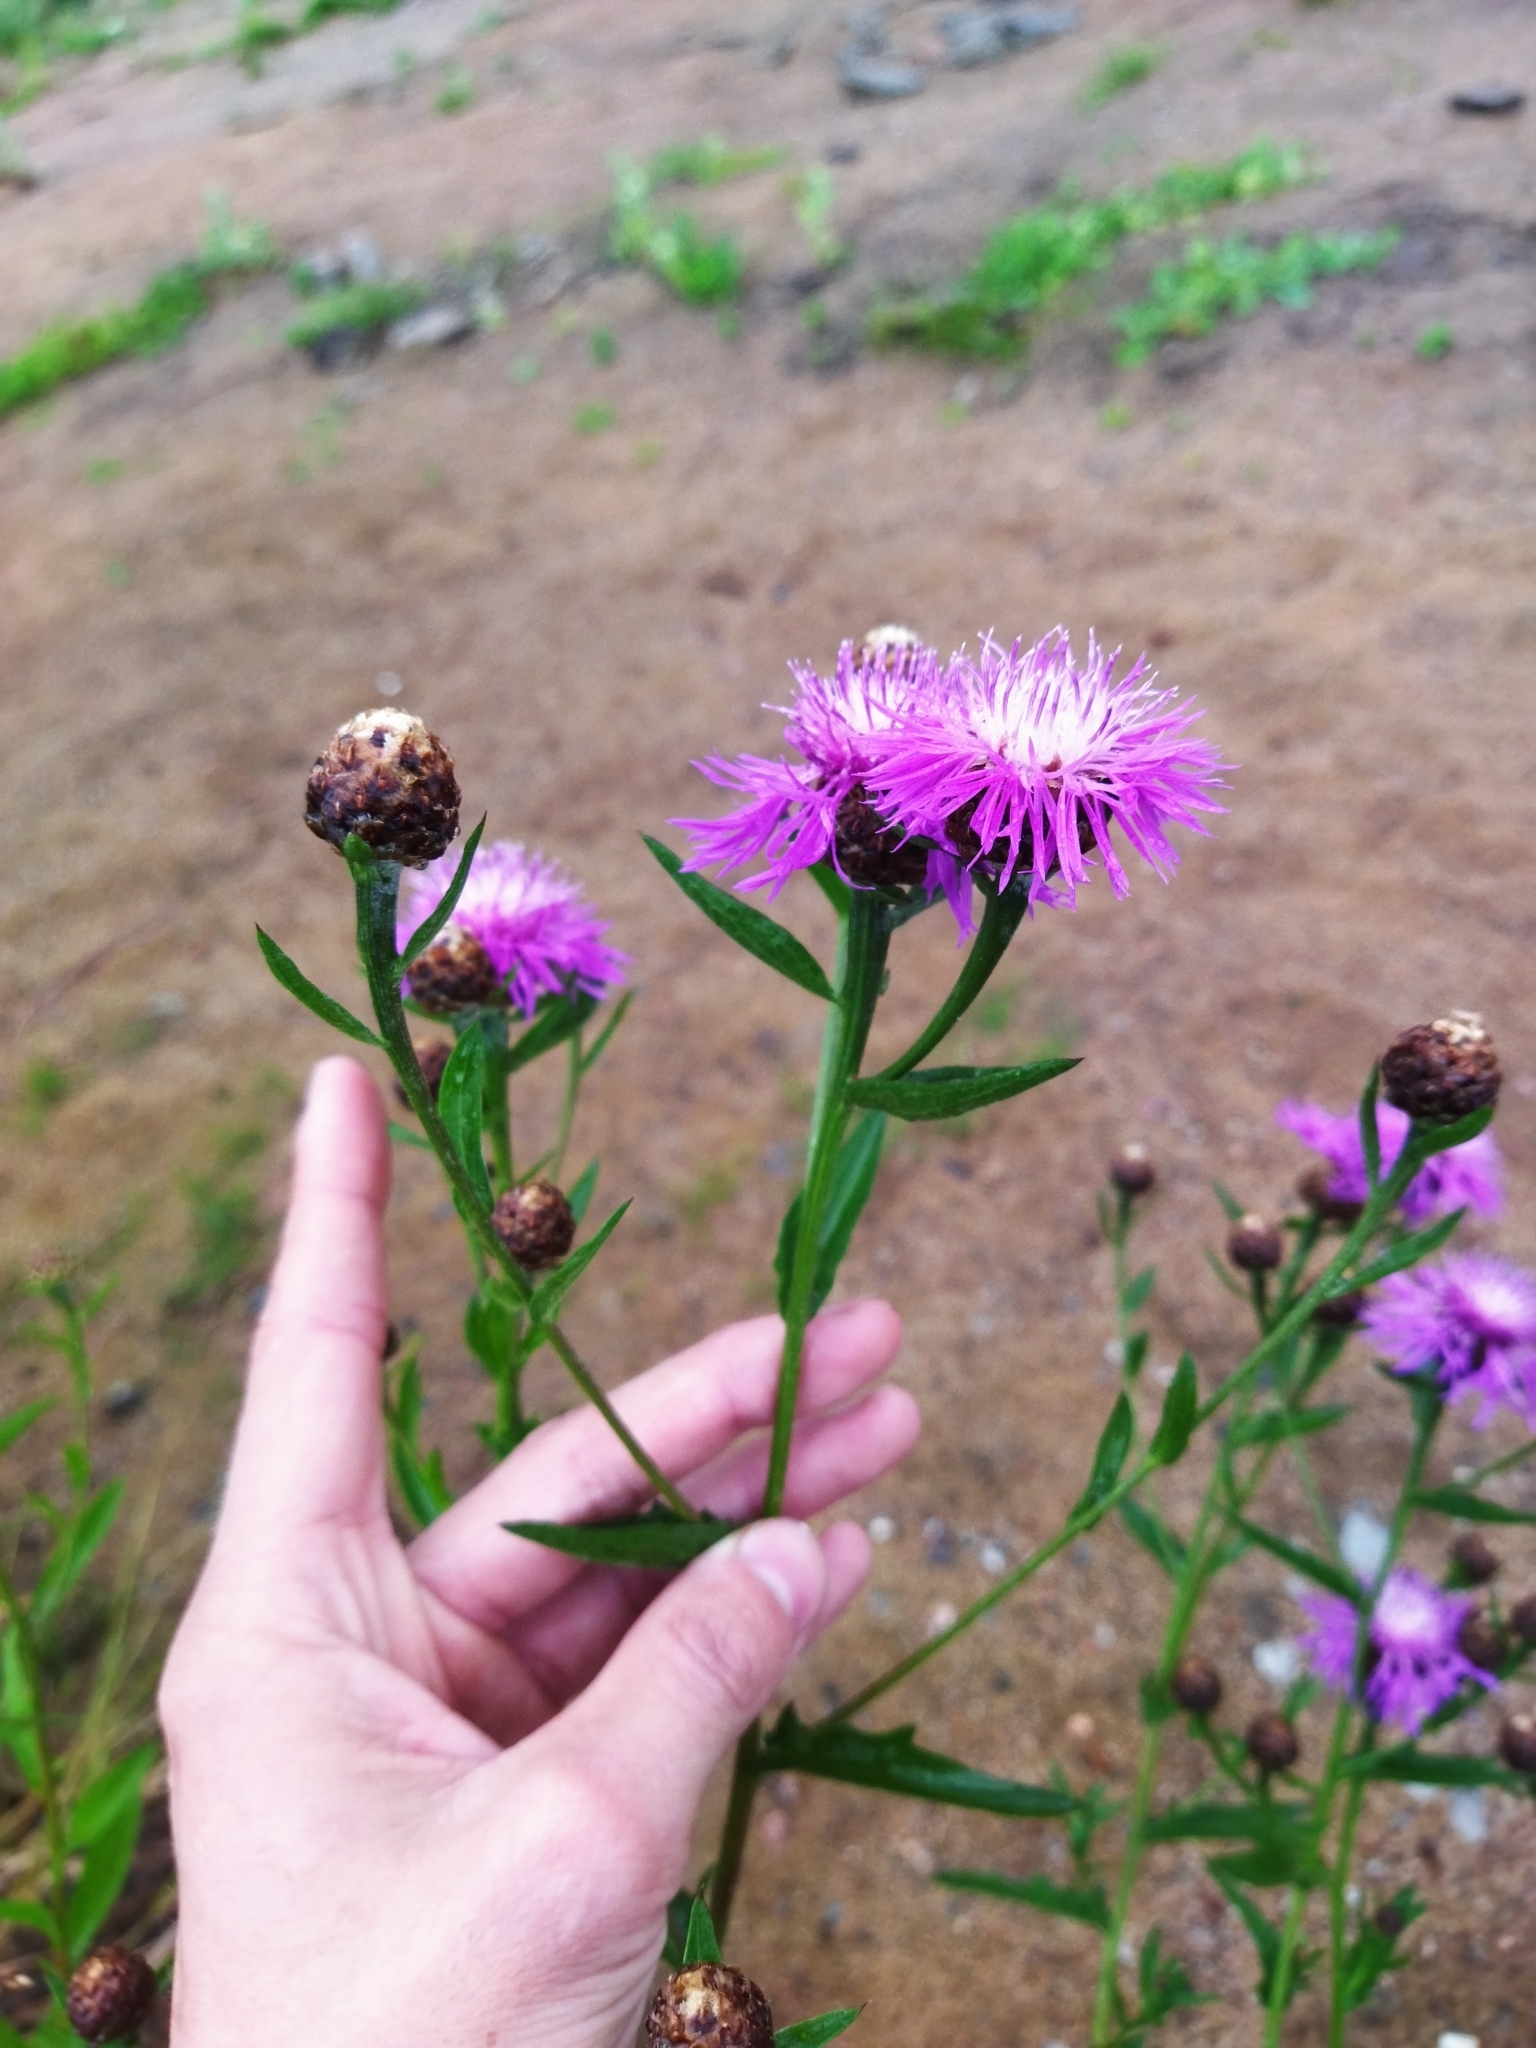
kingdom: Plantae
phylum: Tracheophyta
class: Magnoliopsida
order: Asterales
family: Asteraceae
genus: Centaurea
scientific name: Centaurea jacea
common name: Brown knapweed
